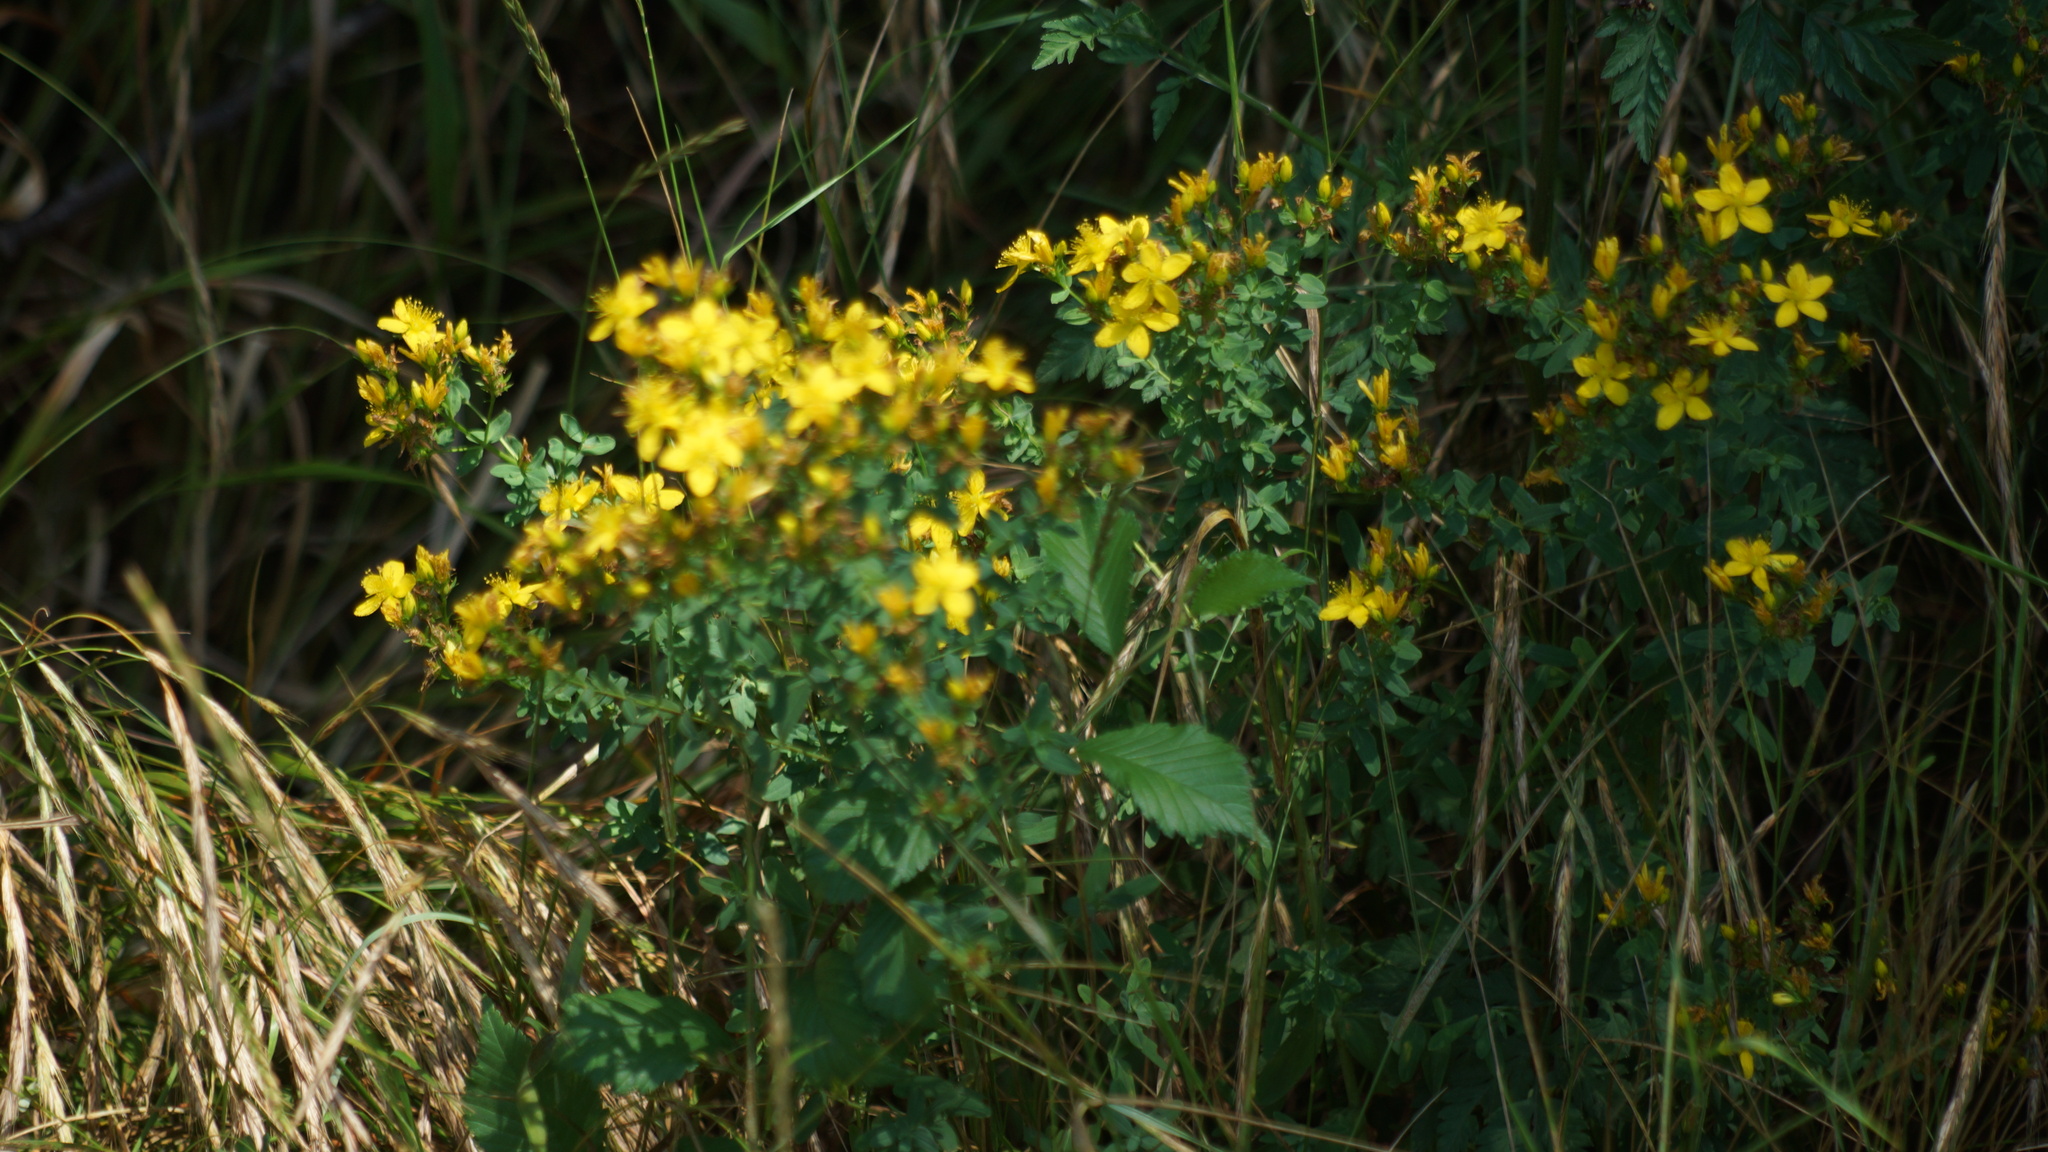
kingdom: Plantae
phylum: Tracheophyta
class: Magnoliopsida
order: Malpighiales
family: Hypericaceae
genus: Hypericum
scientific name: Hypericum perforatum
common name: Common st. johnswort
